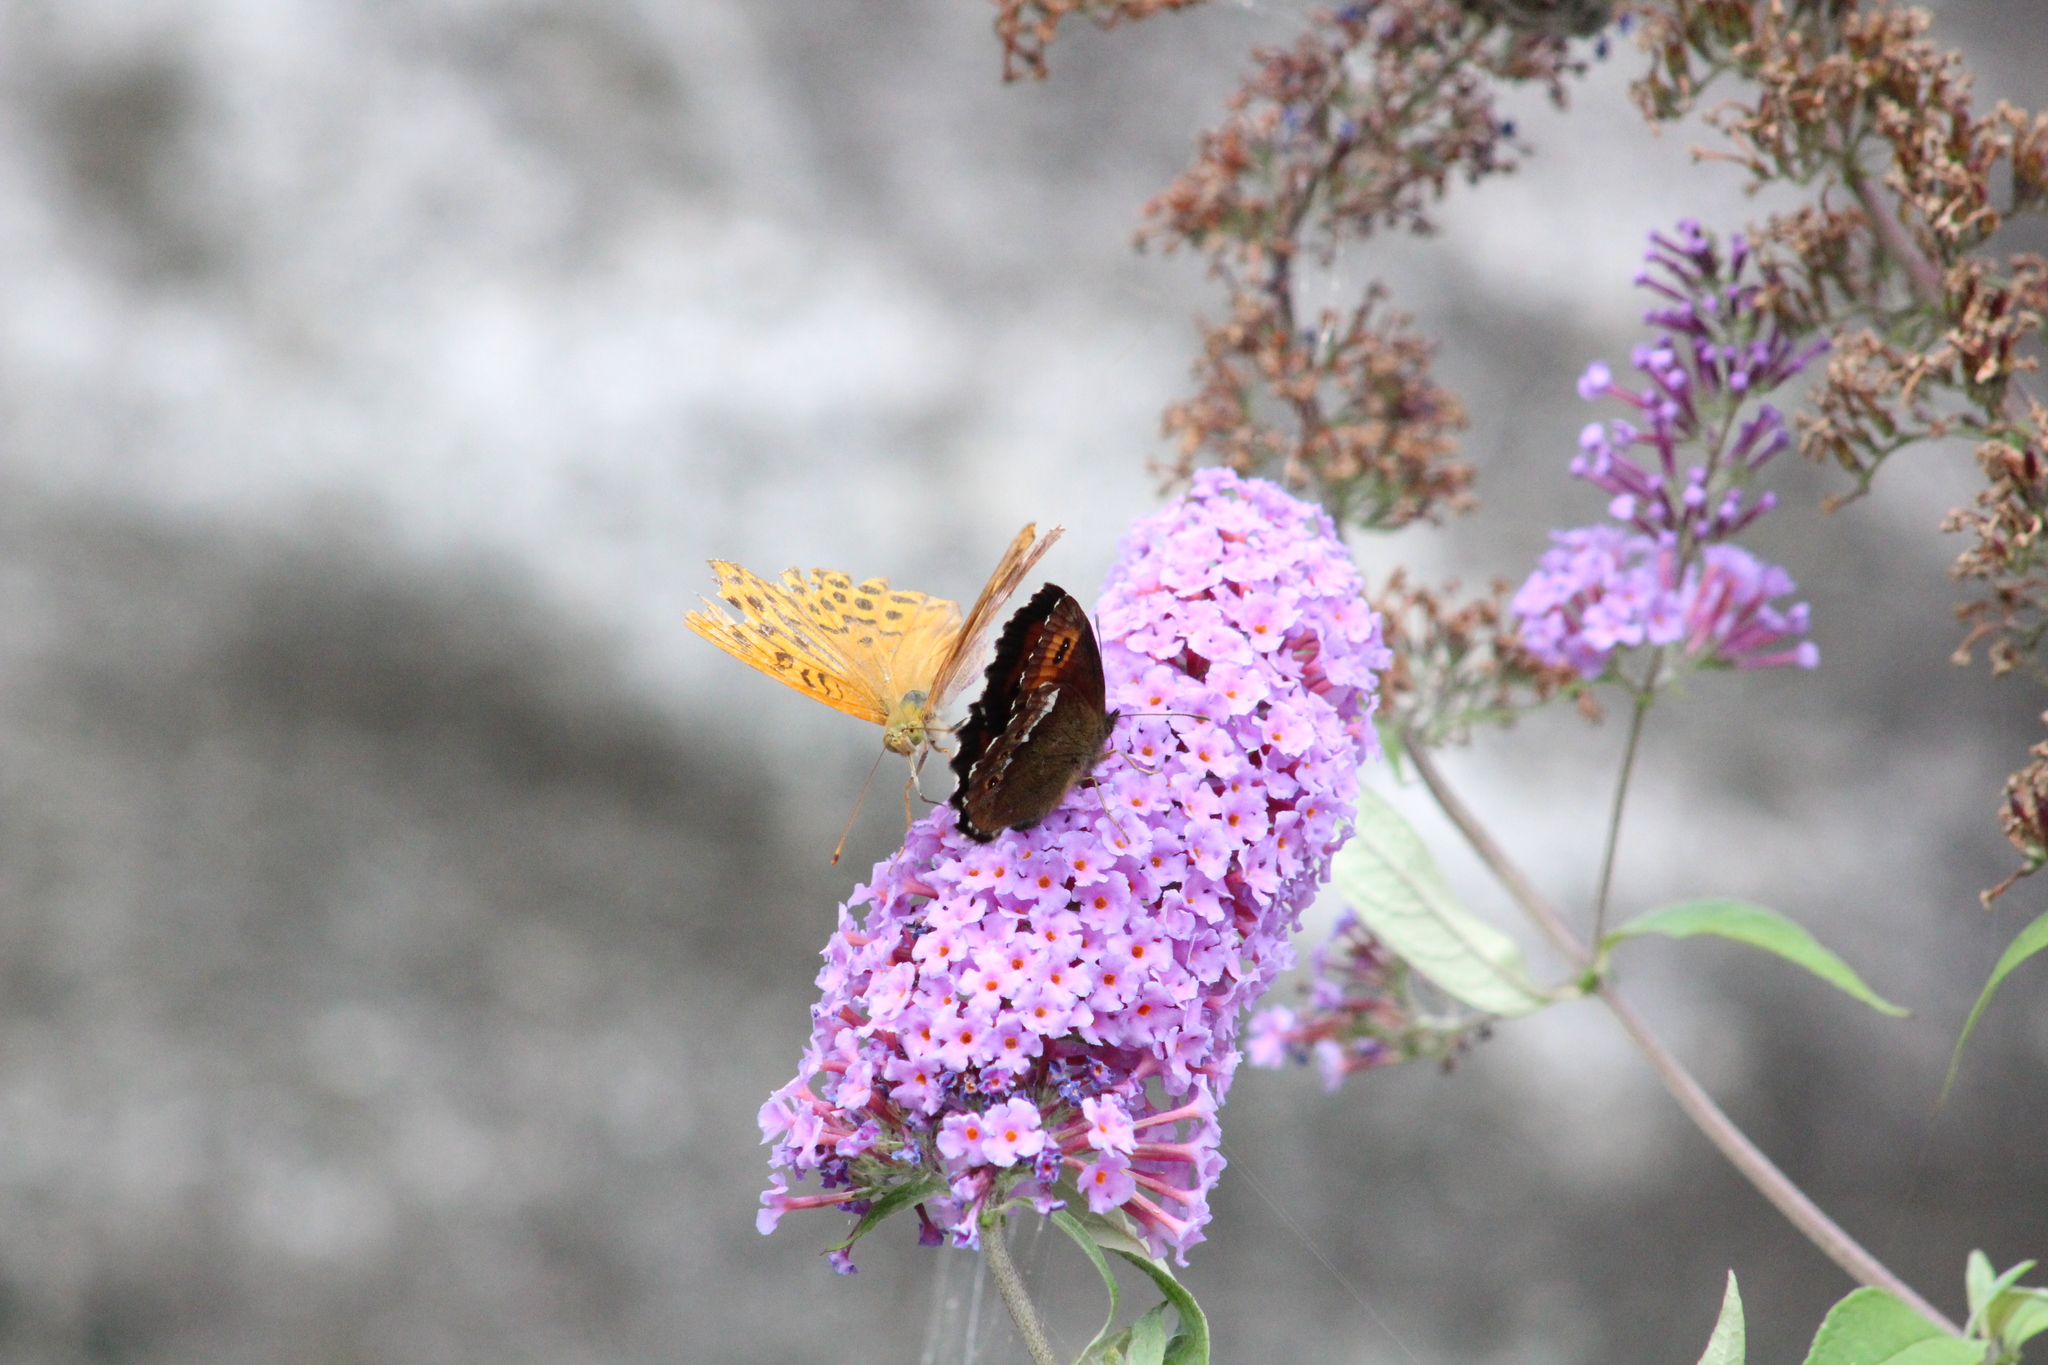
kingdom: Animalia
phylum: Arthropoda
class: Insecta
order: Lepidoptera
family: Nymphalidae
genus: Erebia
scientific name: Erebia ligea
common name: Arran brown
